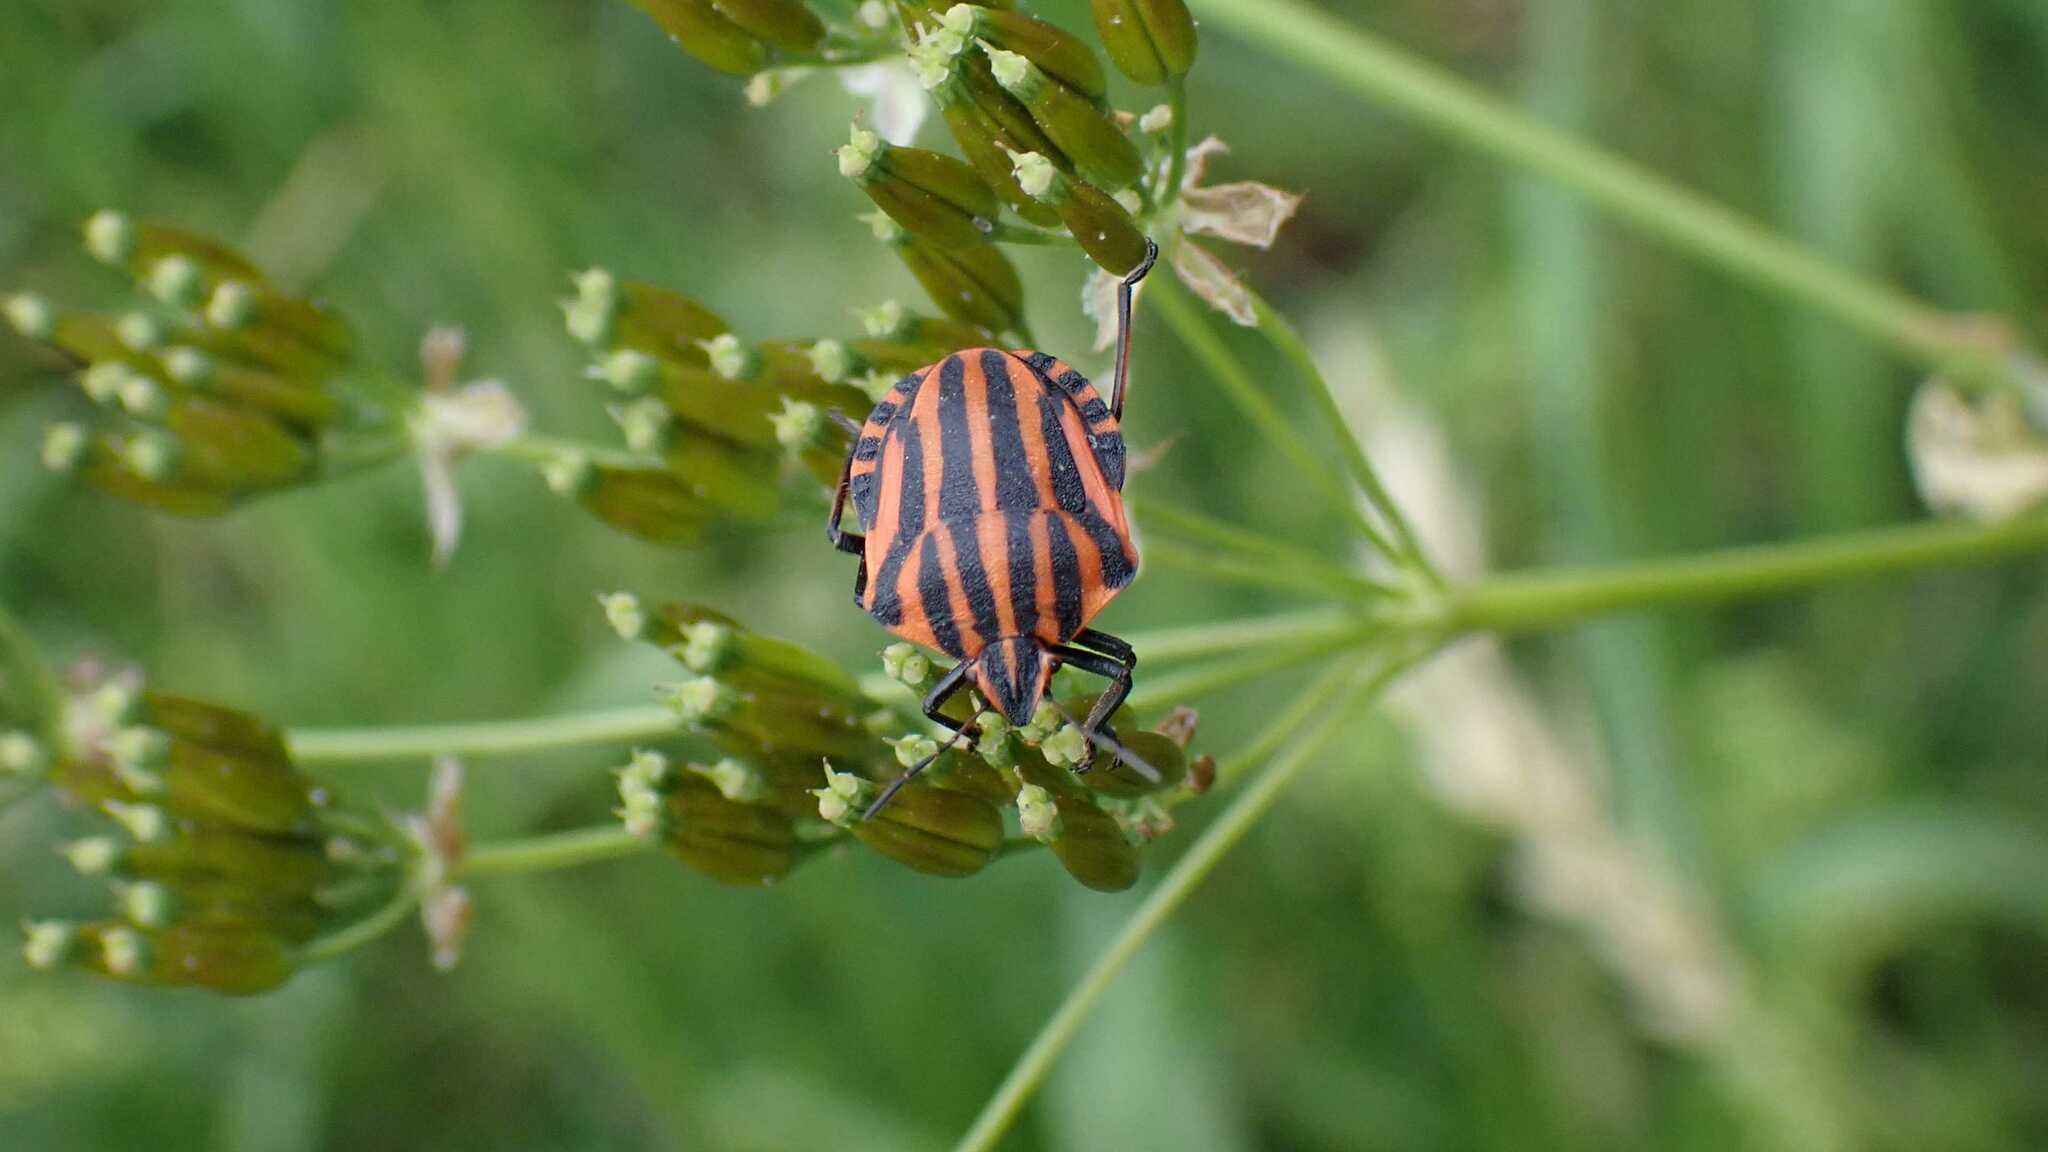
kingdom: Animalia
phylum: Arthropoda
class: Insecta
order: Hemiptera
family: Pentatomidae
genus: Graphosoma
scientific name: Graphosoma italicum
